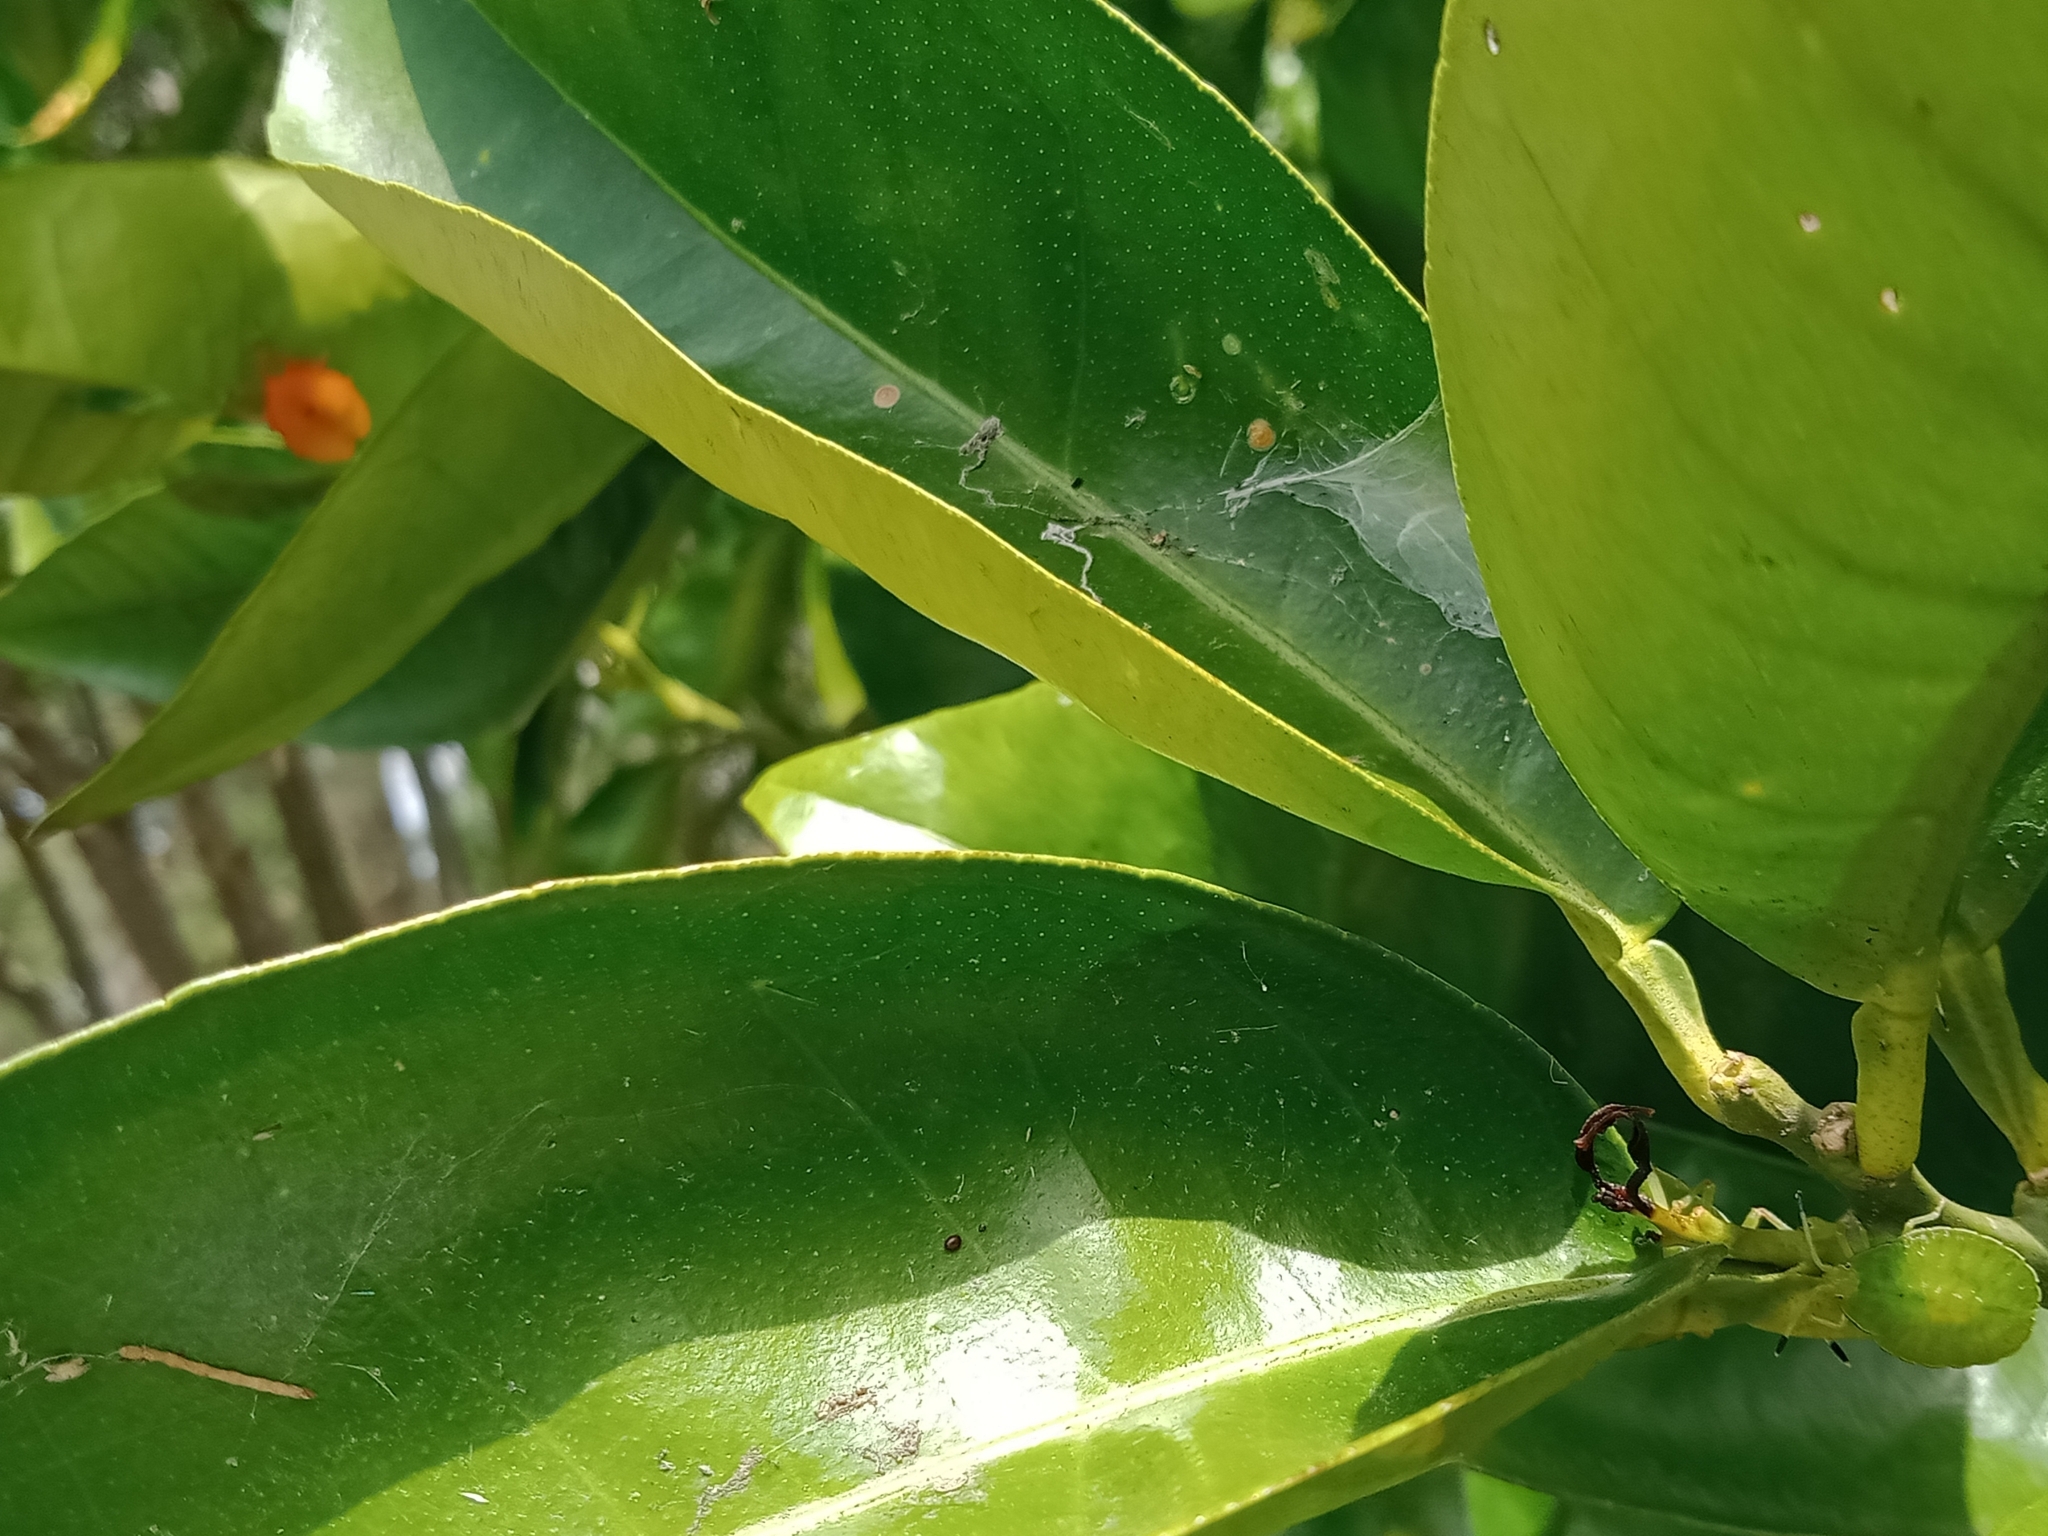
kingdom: Animalia
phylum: Arthropoda
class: Insecta
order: Hemiptera
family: Tessaratomidae
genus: Musgraveia
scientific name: Musgraveia sulciventris
